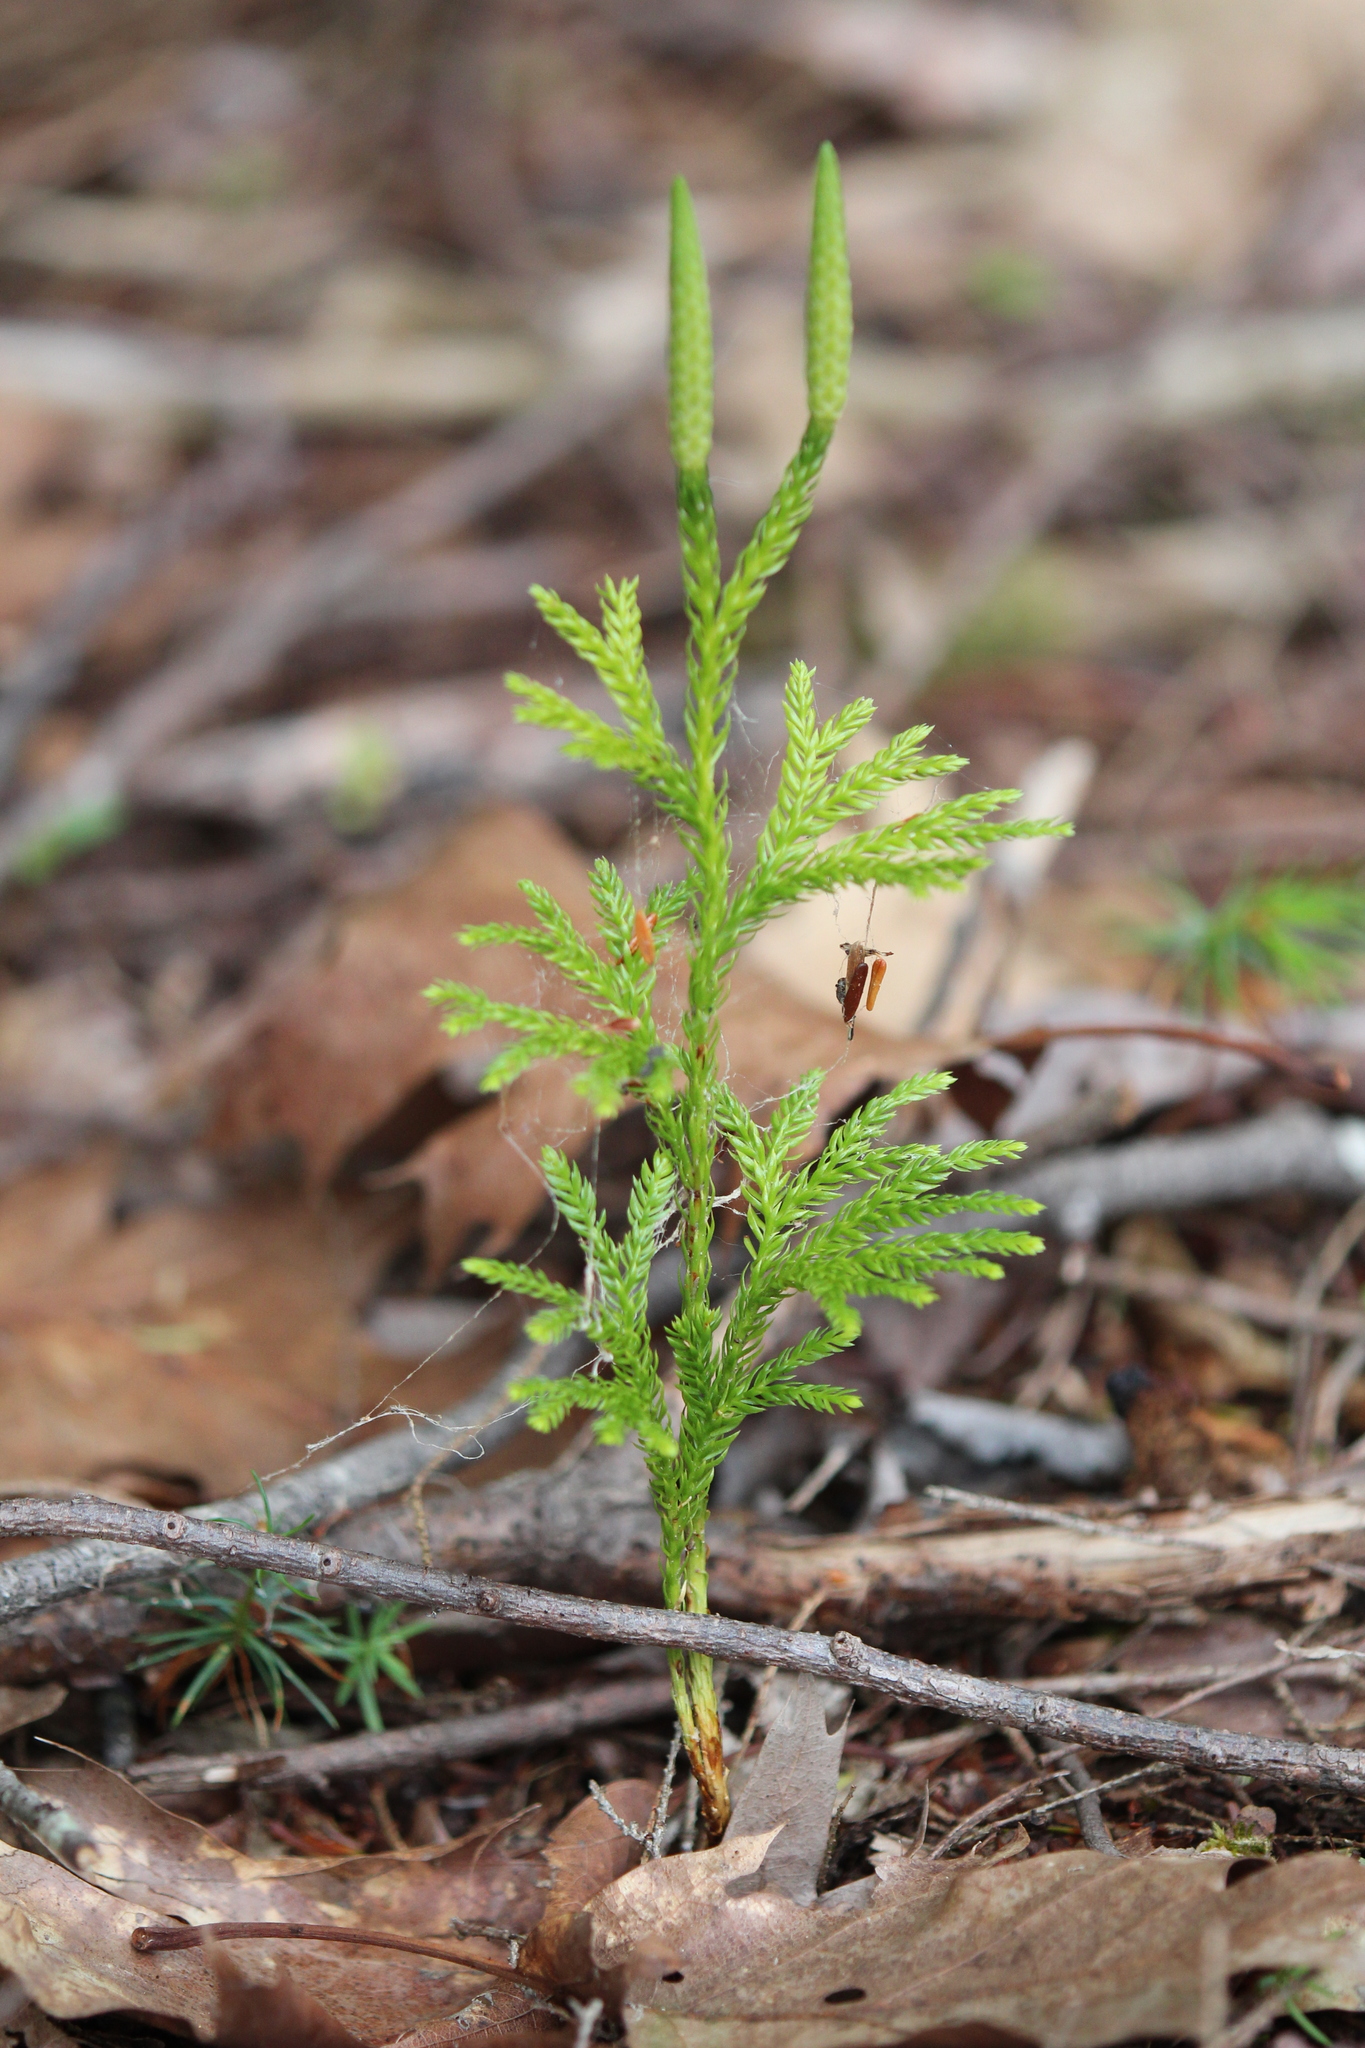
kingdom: Plantae
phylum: Tracheophyta
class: Lycopodiopsida
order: Lycopodiales
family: Lycopodiaceae
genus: Dendrolycopodium
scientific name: Dendrolycopodium obscurum
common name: Common ground-pine
